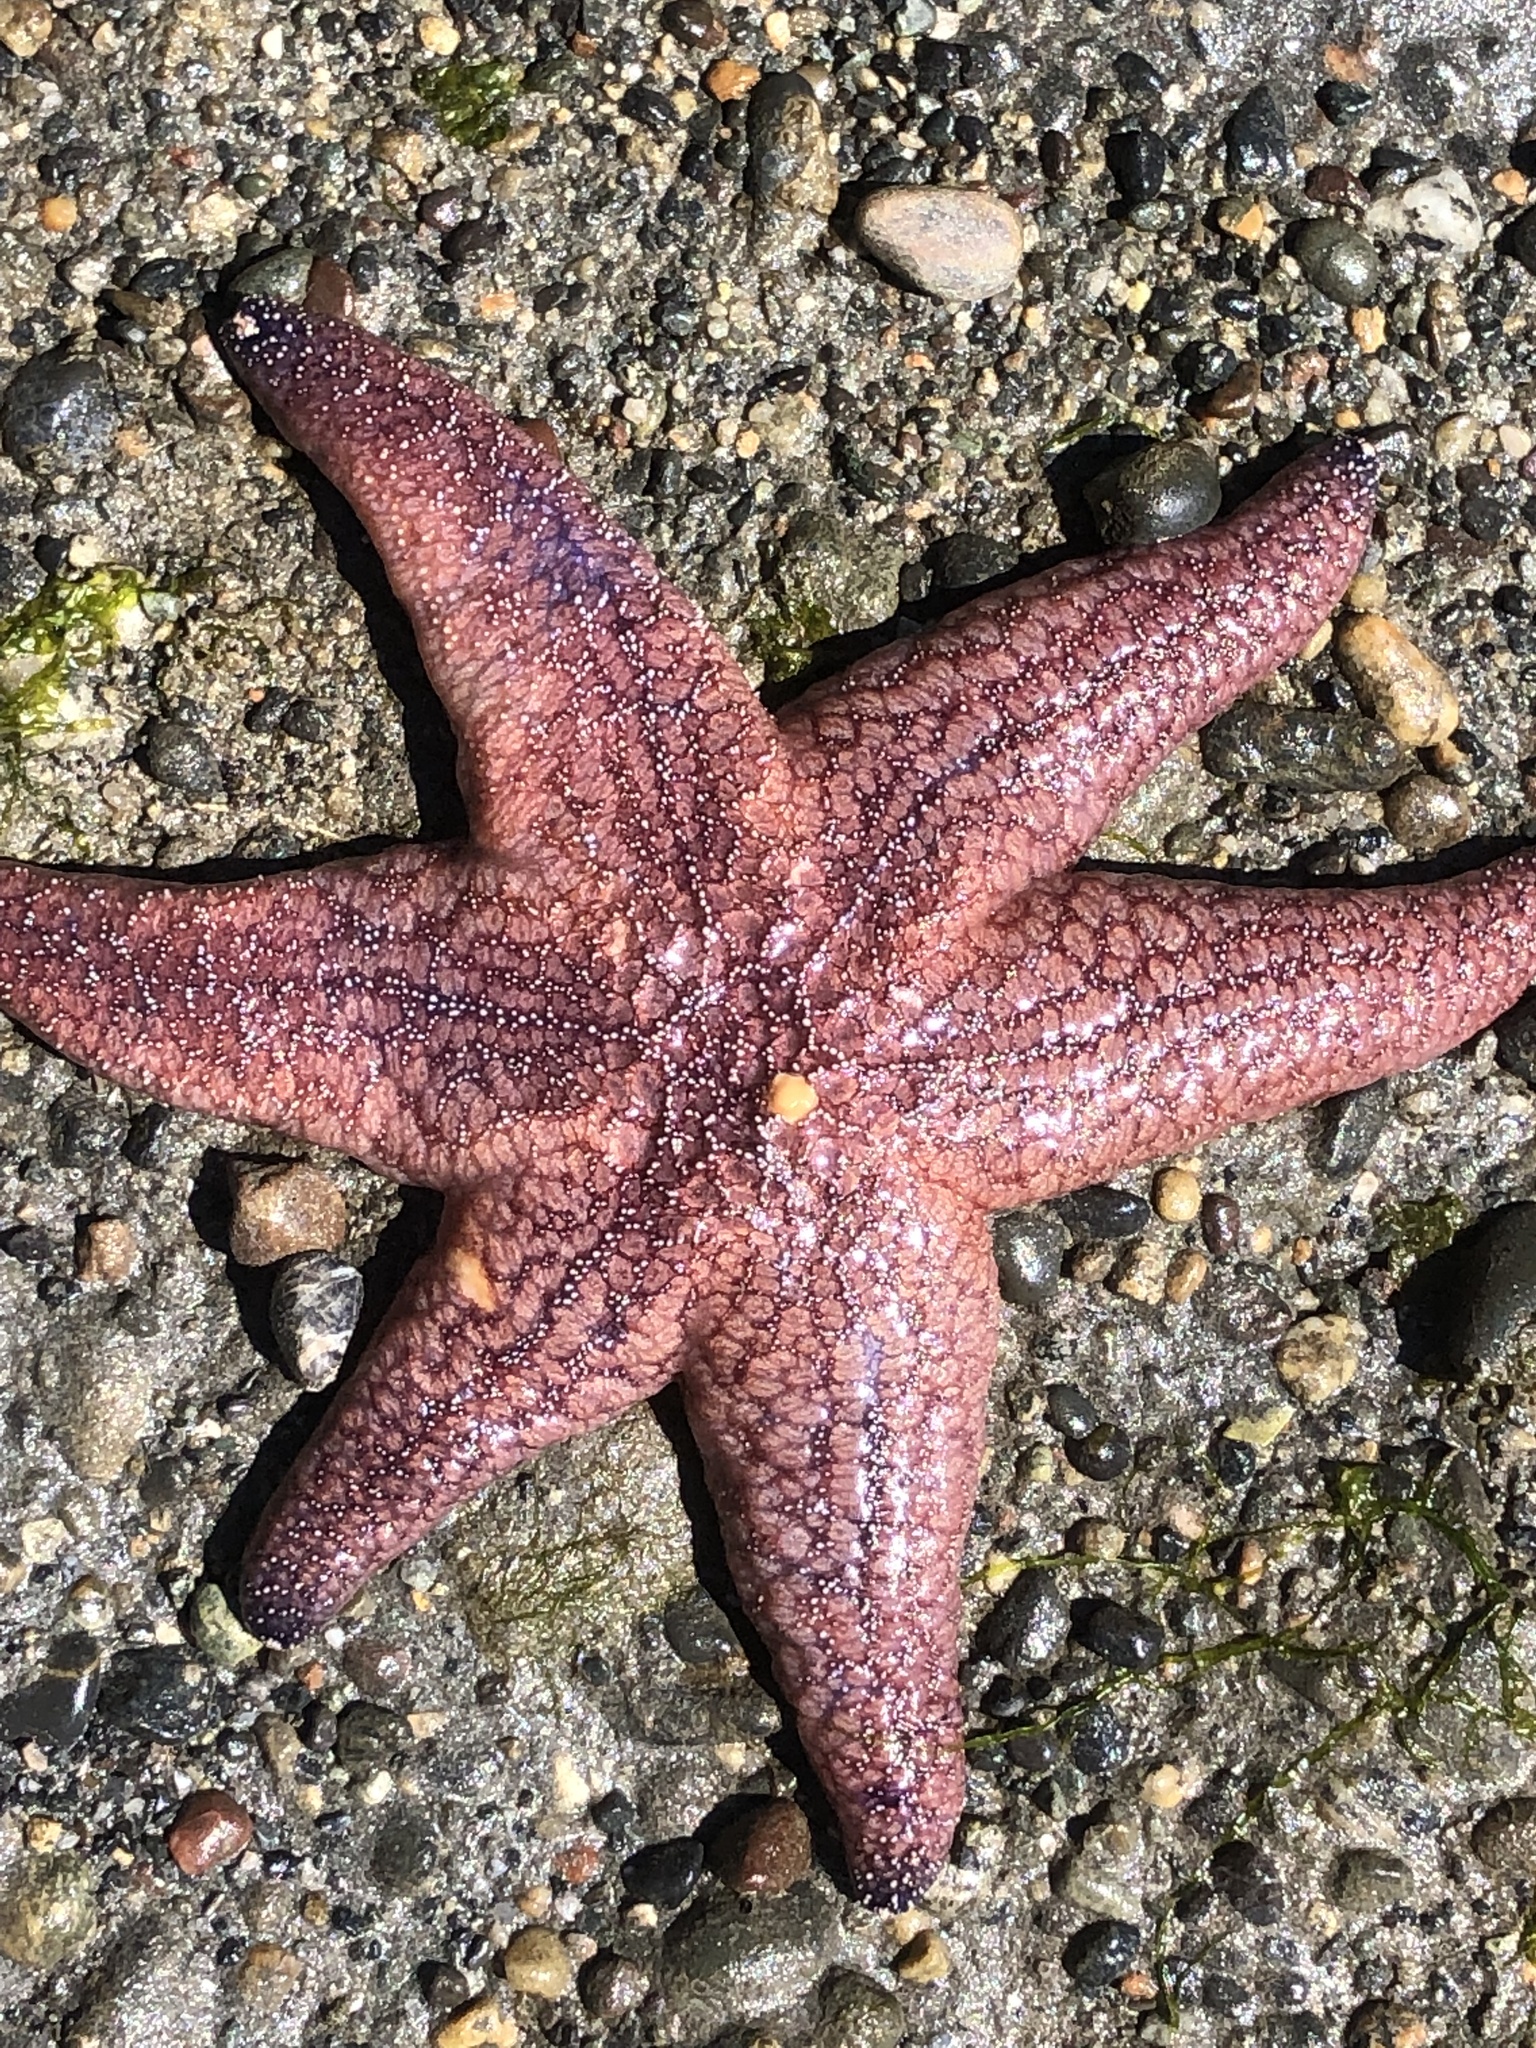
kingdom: Animalia
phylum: Echinodermata
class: Asteroidea
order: Forcipulatida
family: Asteriidae
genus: Pisaster
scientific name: Pisaster ochraceus
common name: Ochre stars
